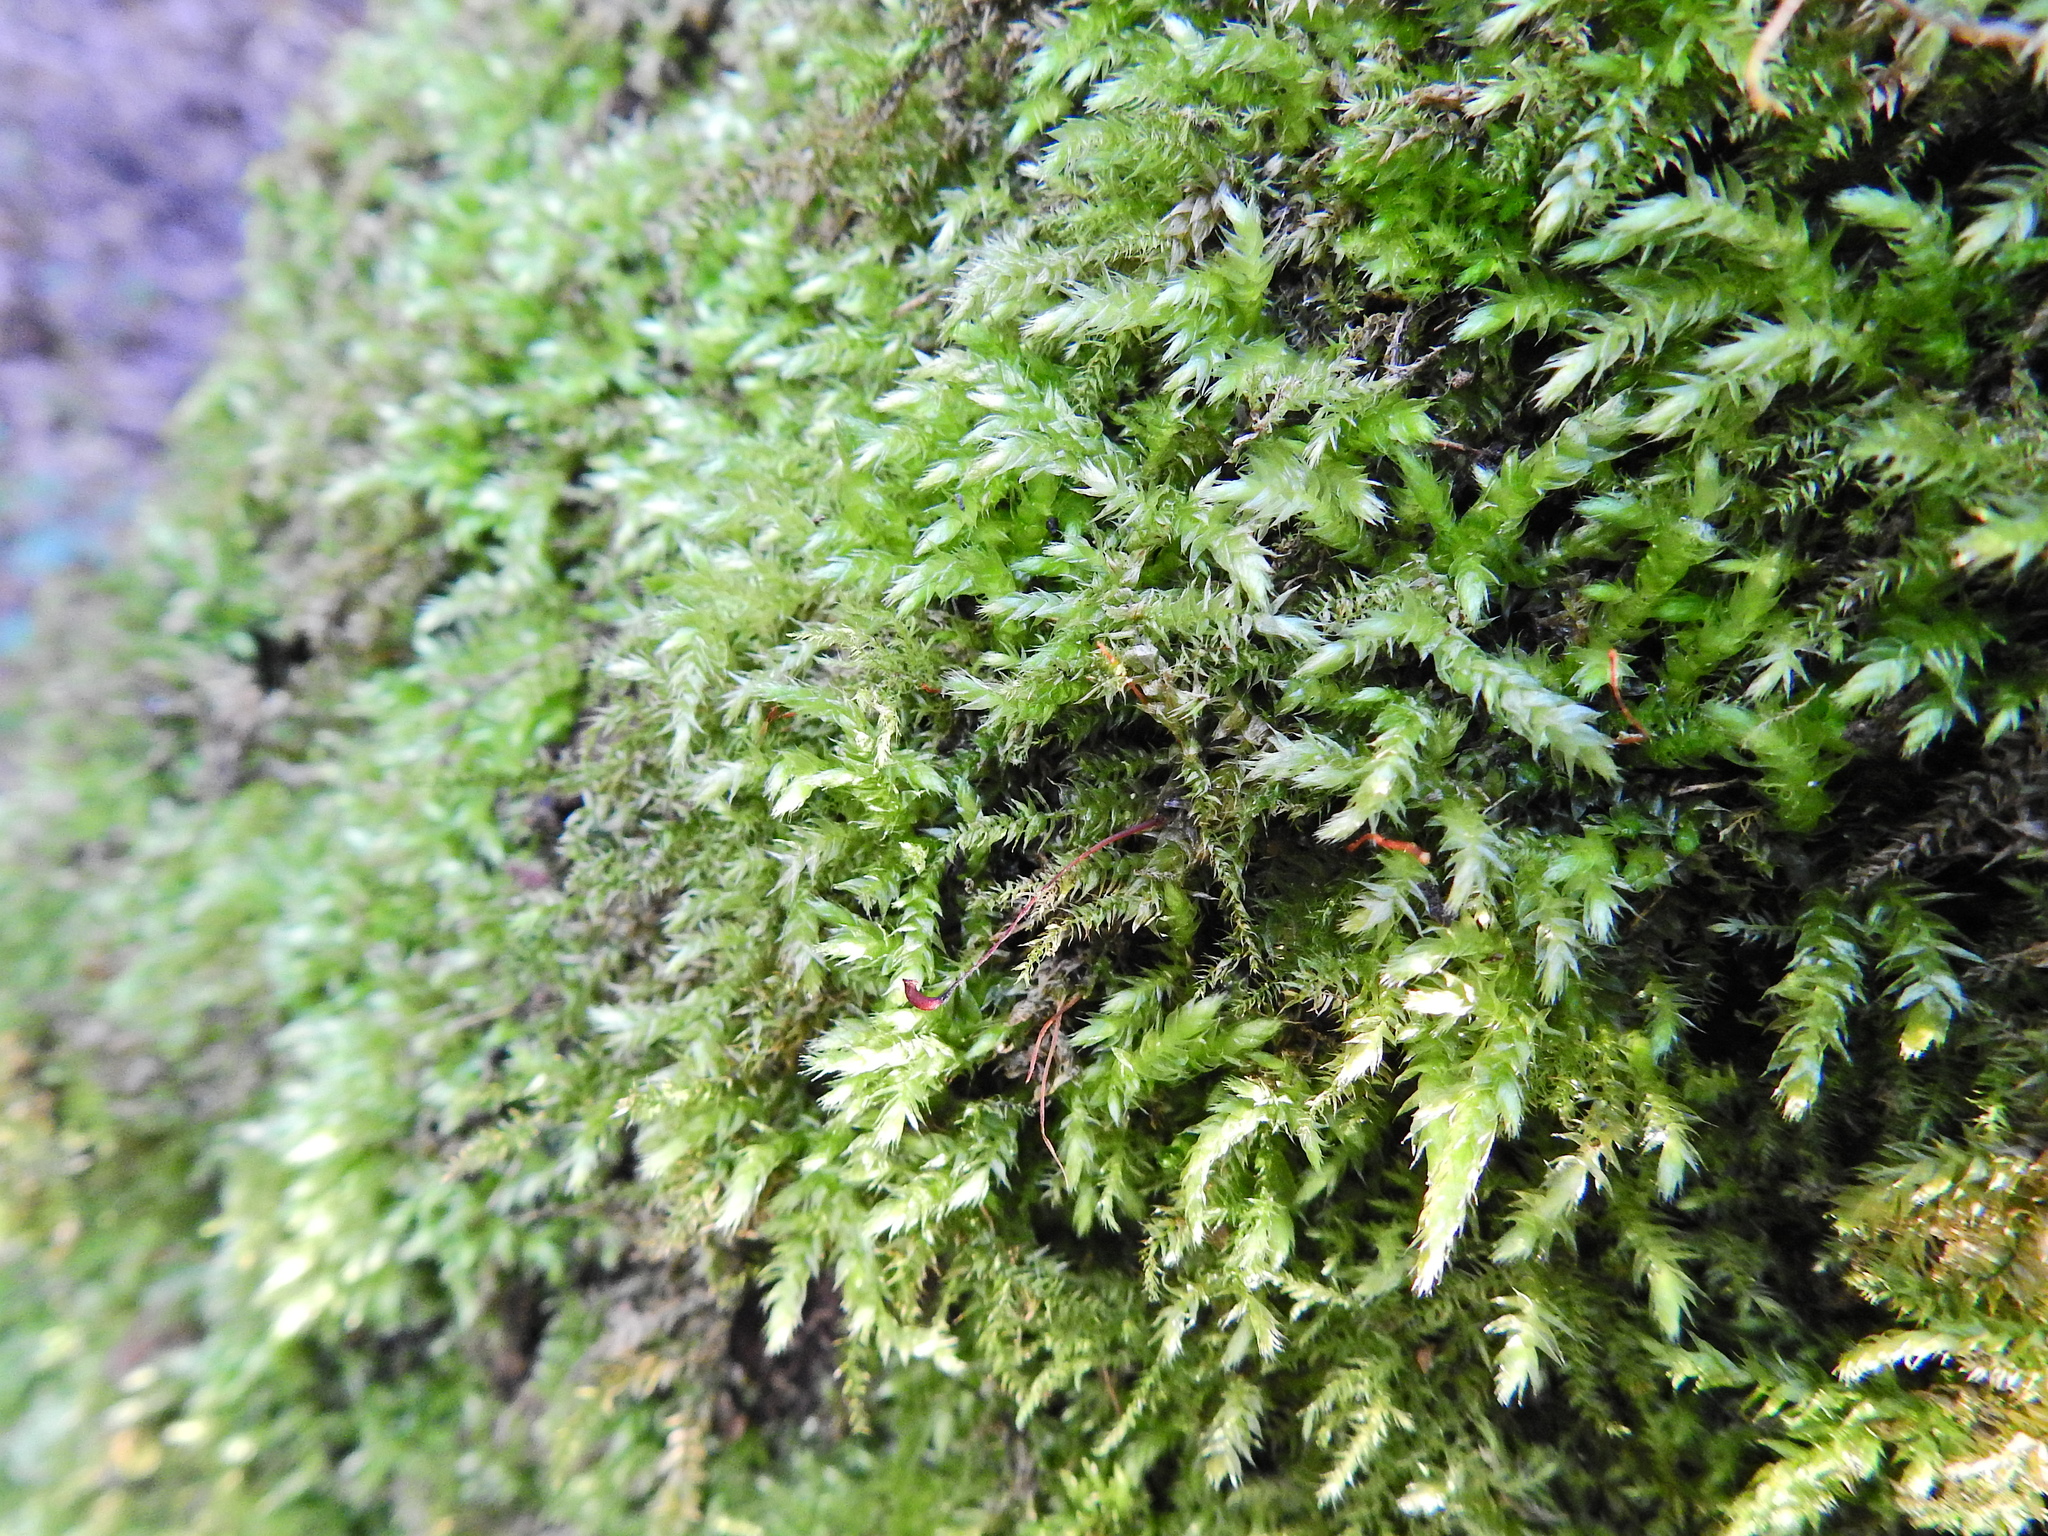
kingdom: Plantae
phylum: Bryophyta
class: Bryopsida
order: Hypnales
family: Brachytheciaceae
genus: Brachythecium
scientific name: Brachythecium rutabulum
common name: Rough-stalked feather-moss
